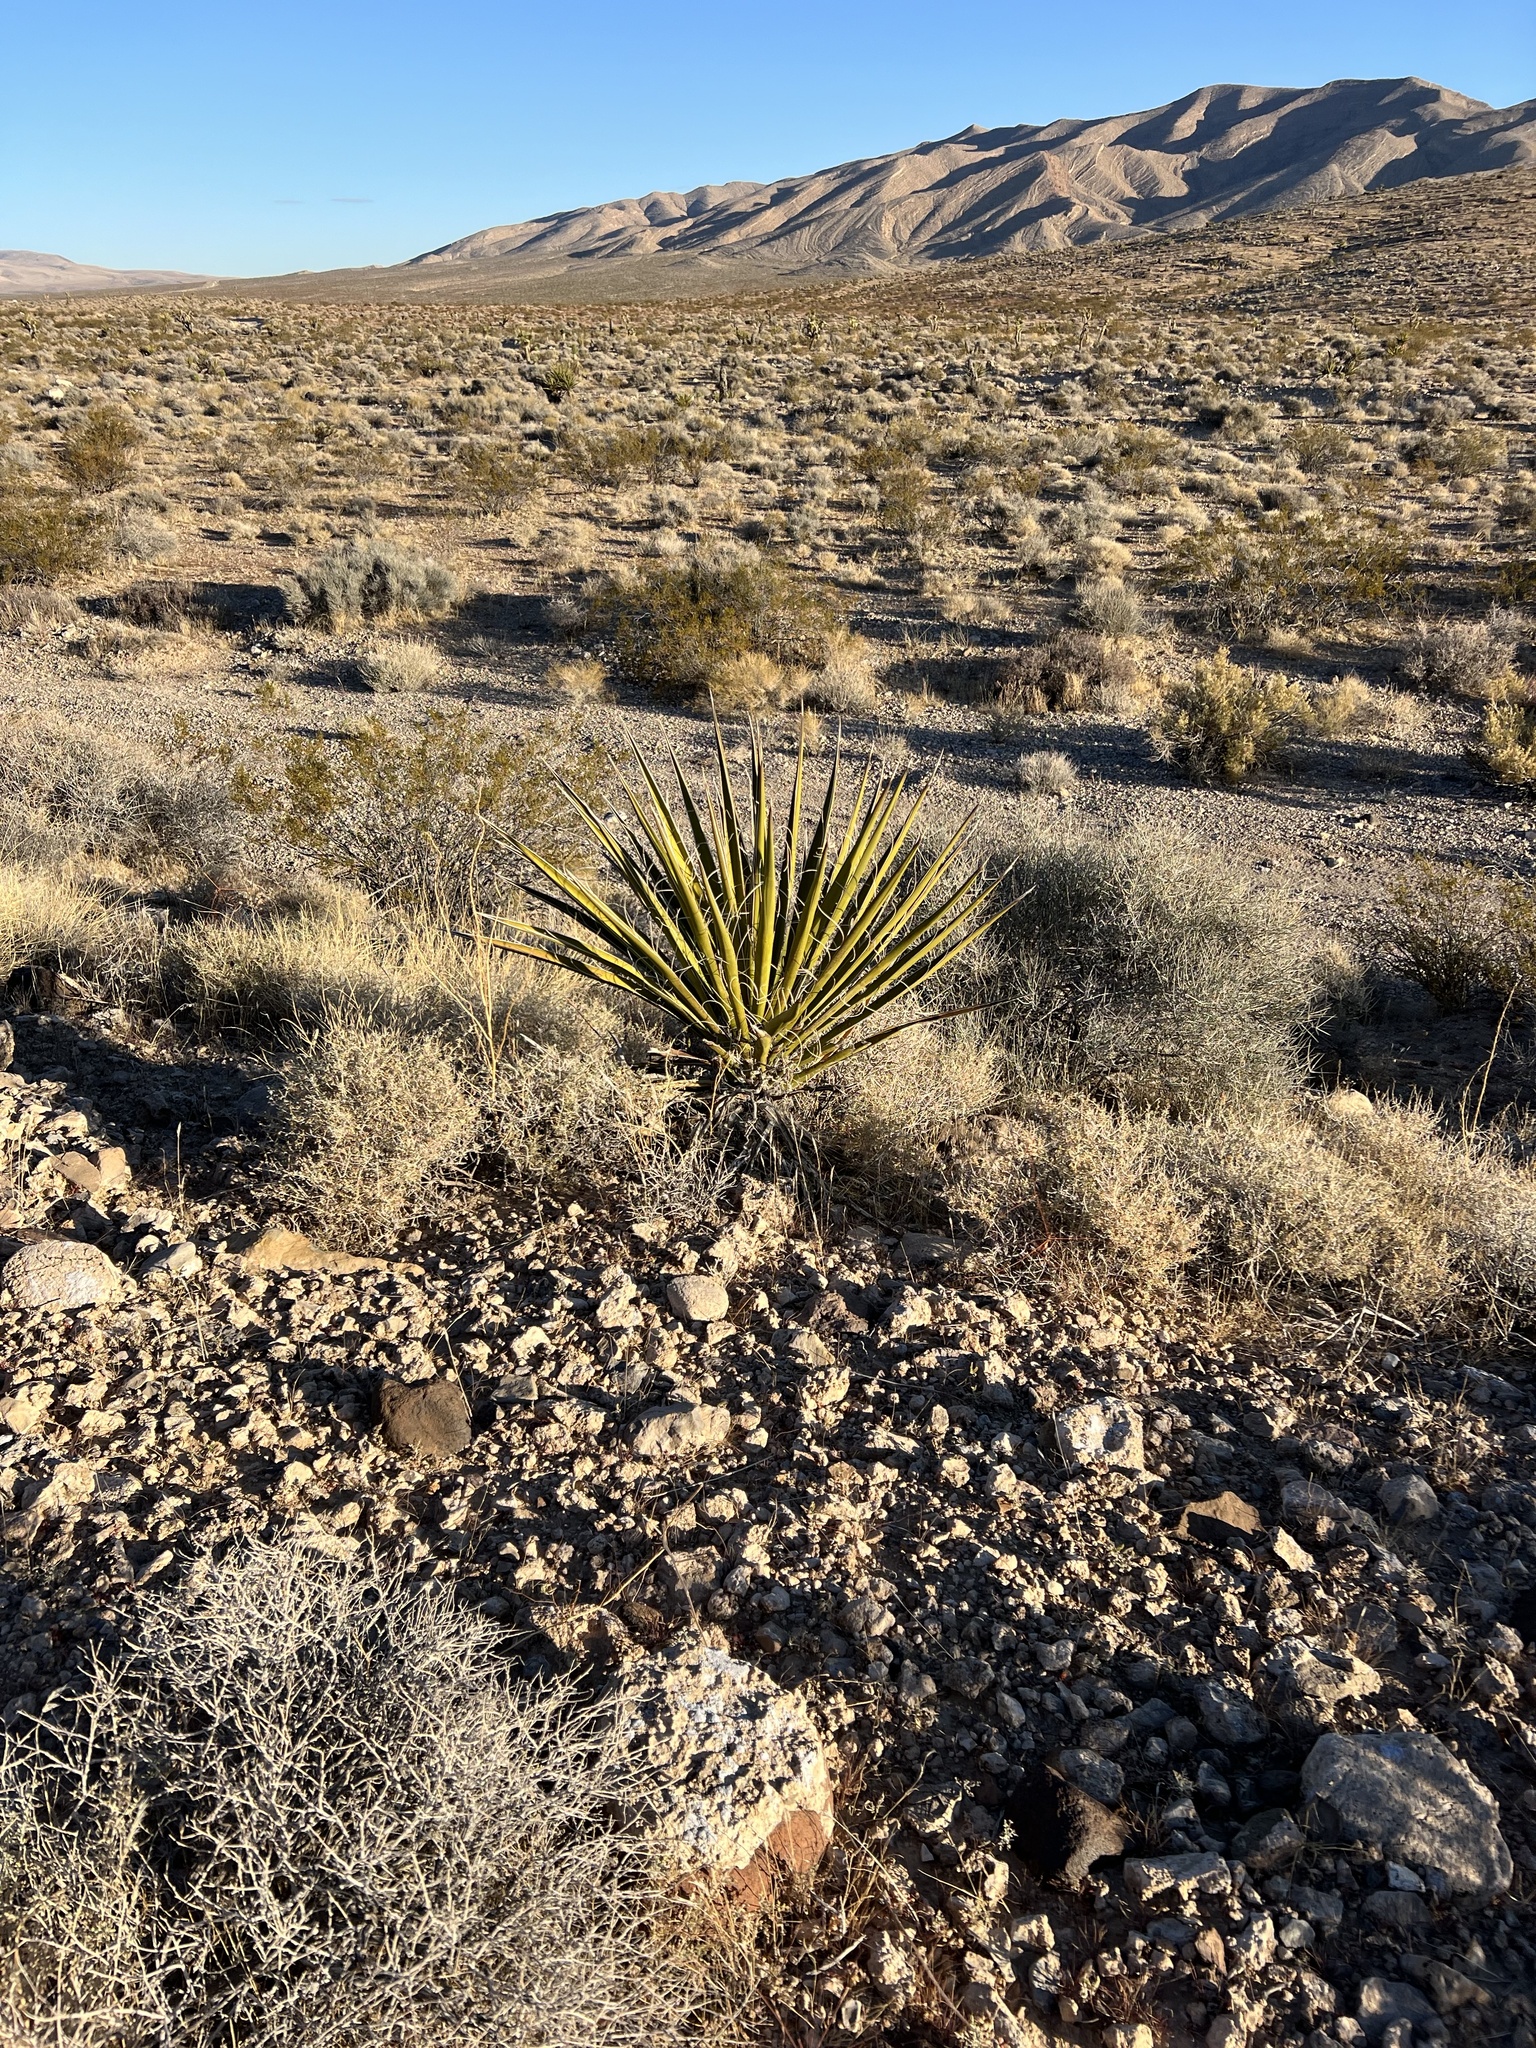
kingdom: Plantae
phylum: Tracheophyta
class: Liliopsida
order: Asparagales
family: Asparagaceae
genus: Yucca
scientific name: Yucca schidigera
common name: Mojave yucca
